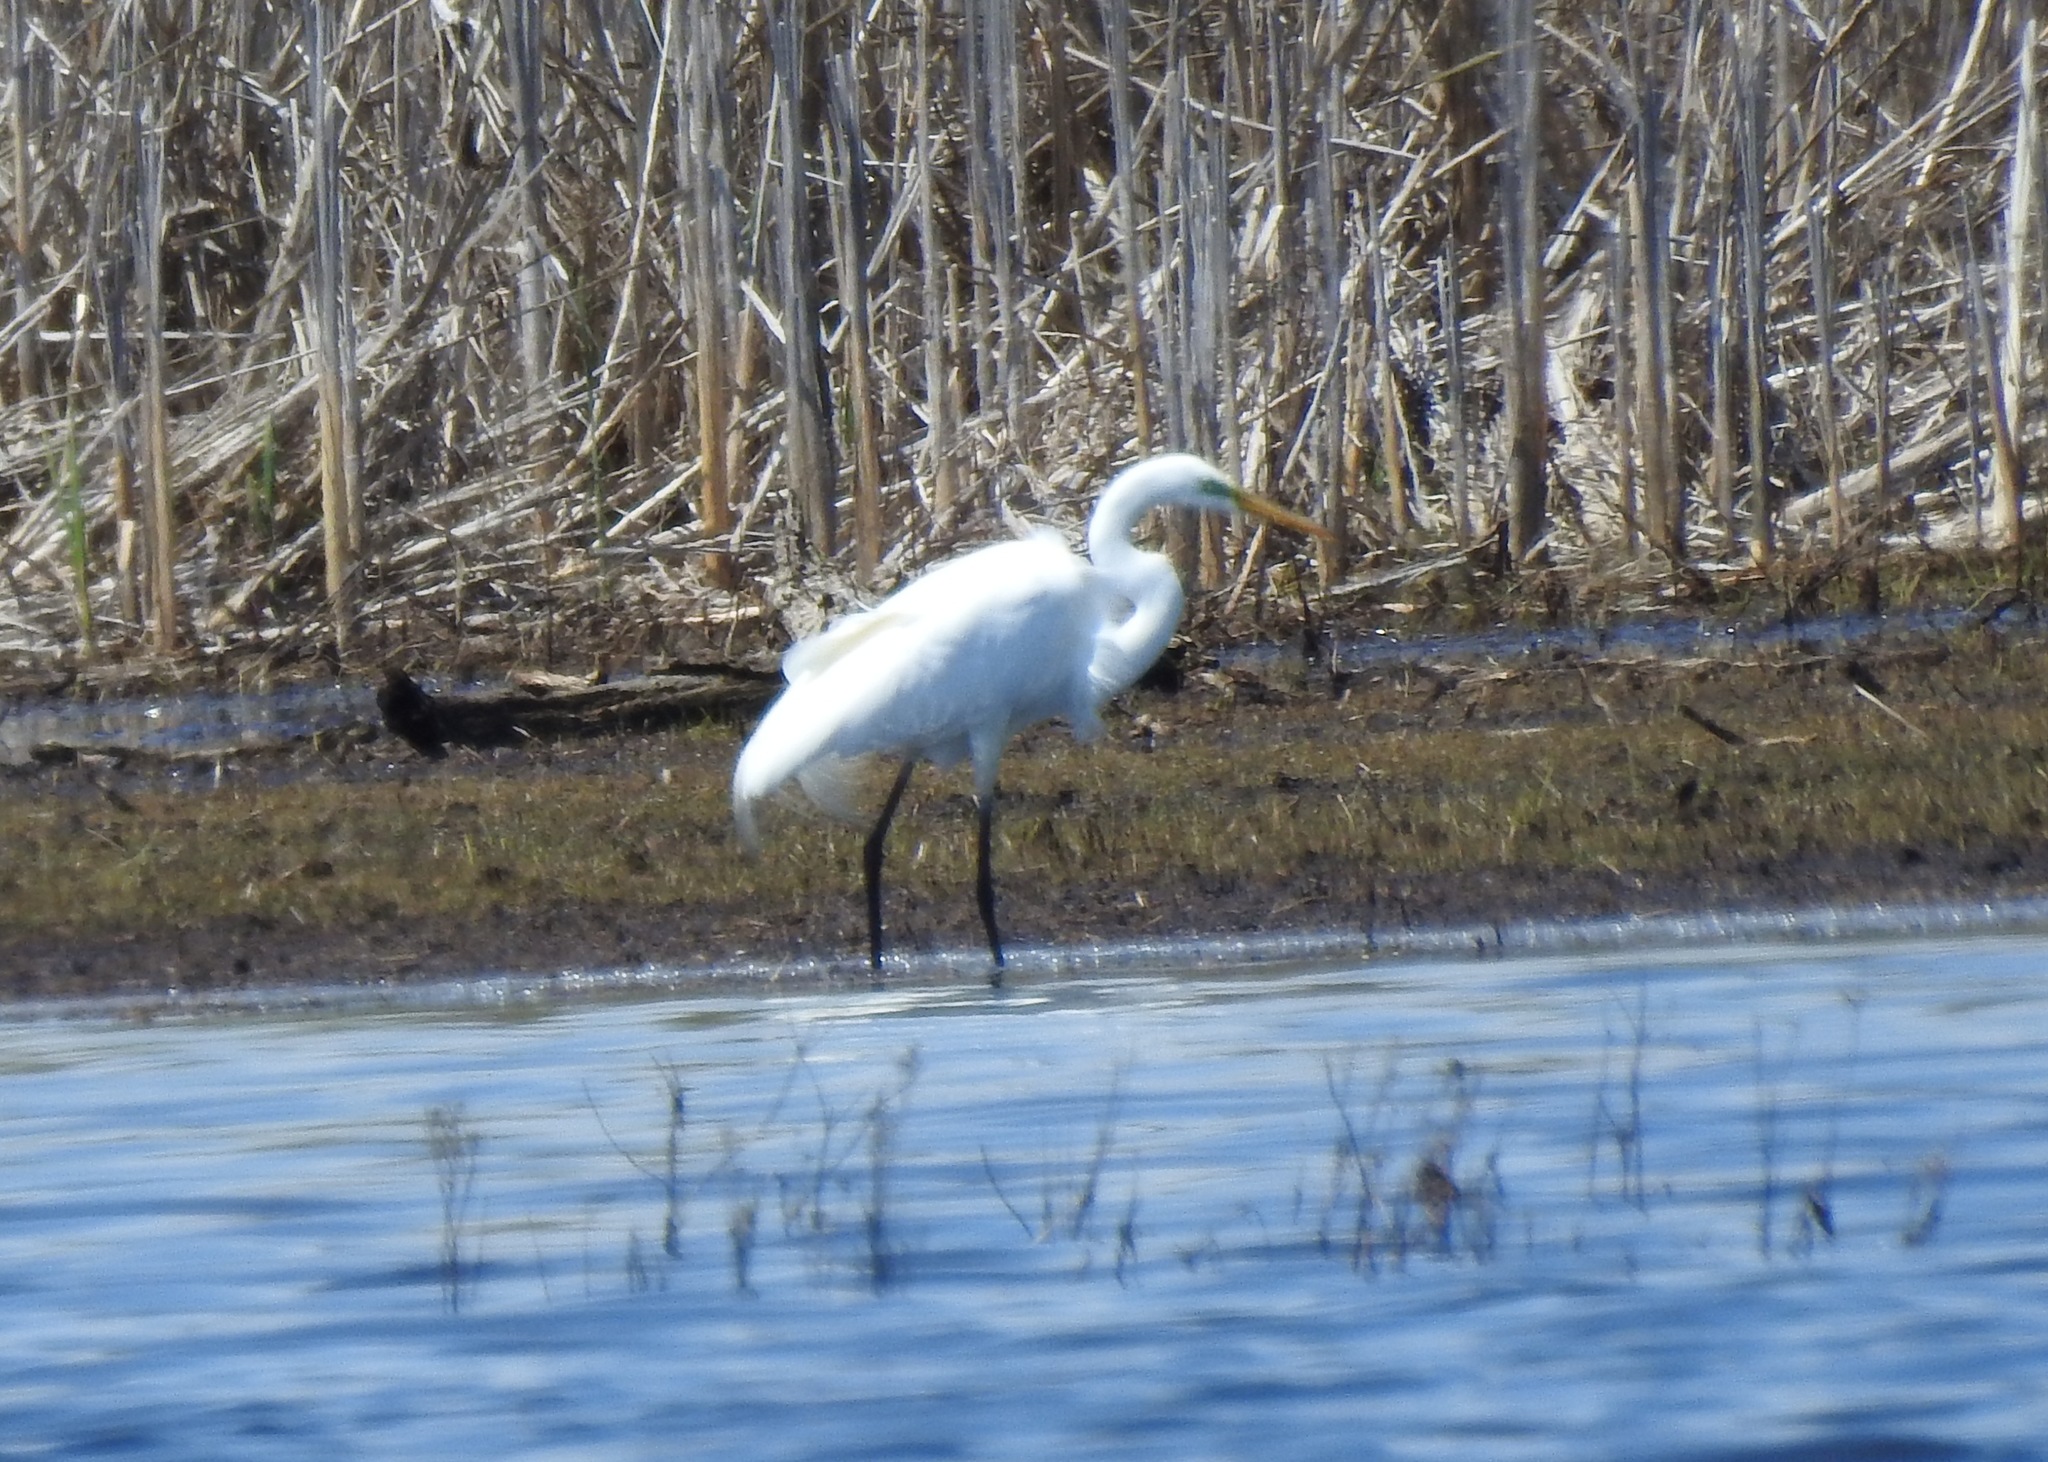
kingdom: Animalia
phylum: Chordata
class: Aves
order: Pelecaniformes
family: Ardeidae
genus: Ardea
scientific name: Ardea alba
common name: Great egret
